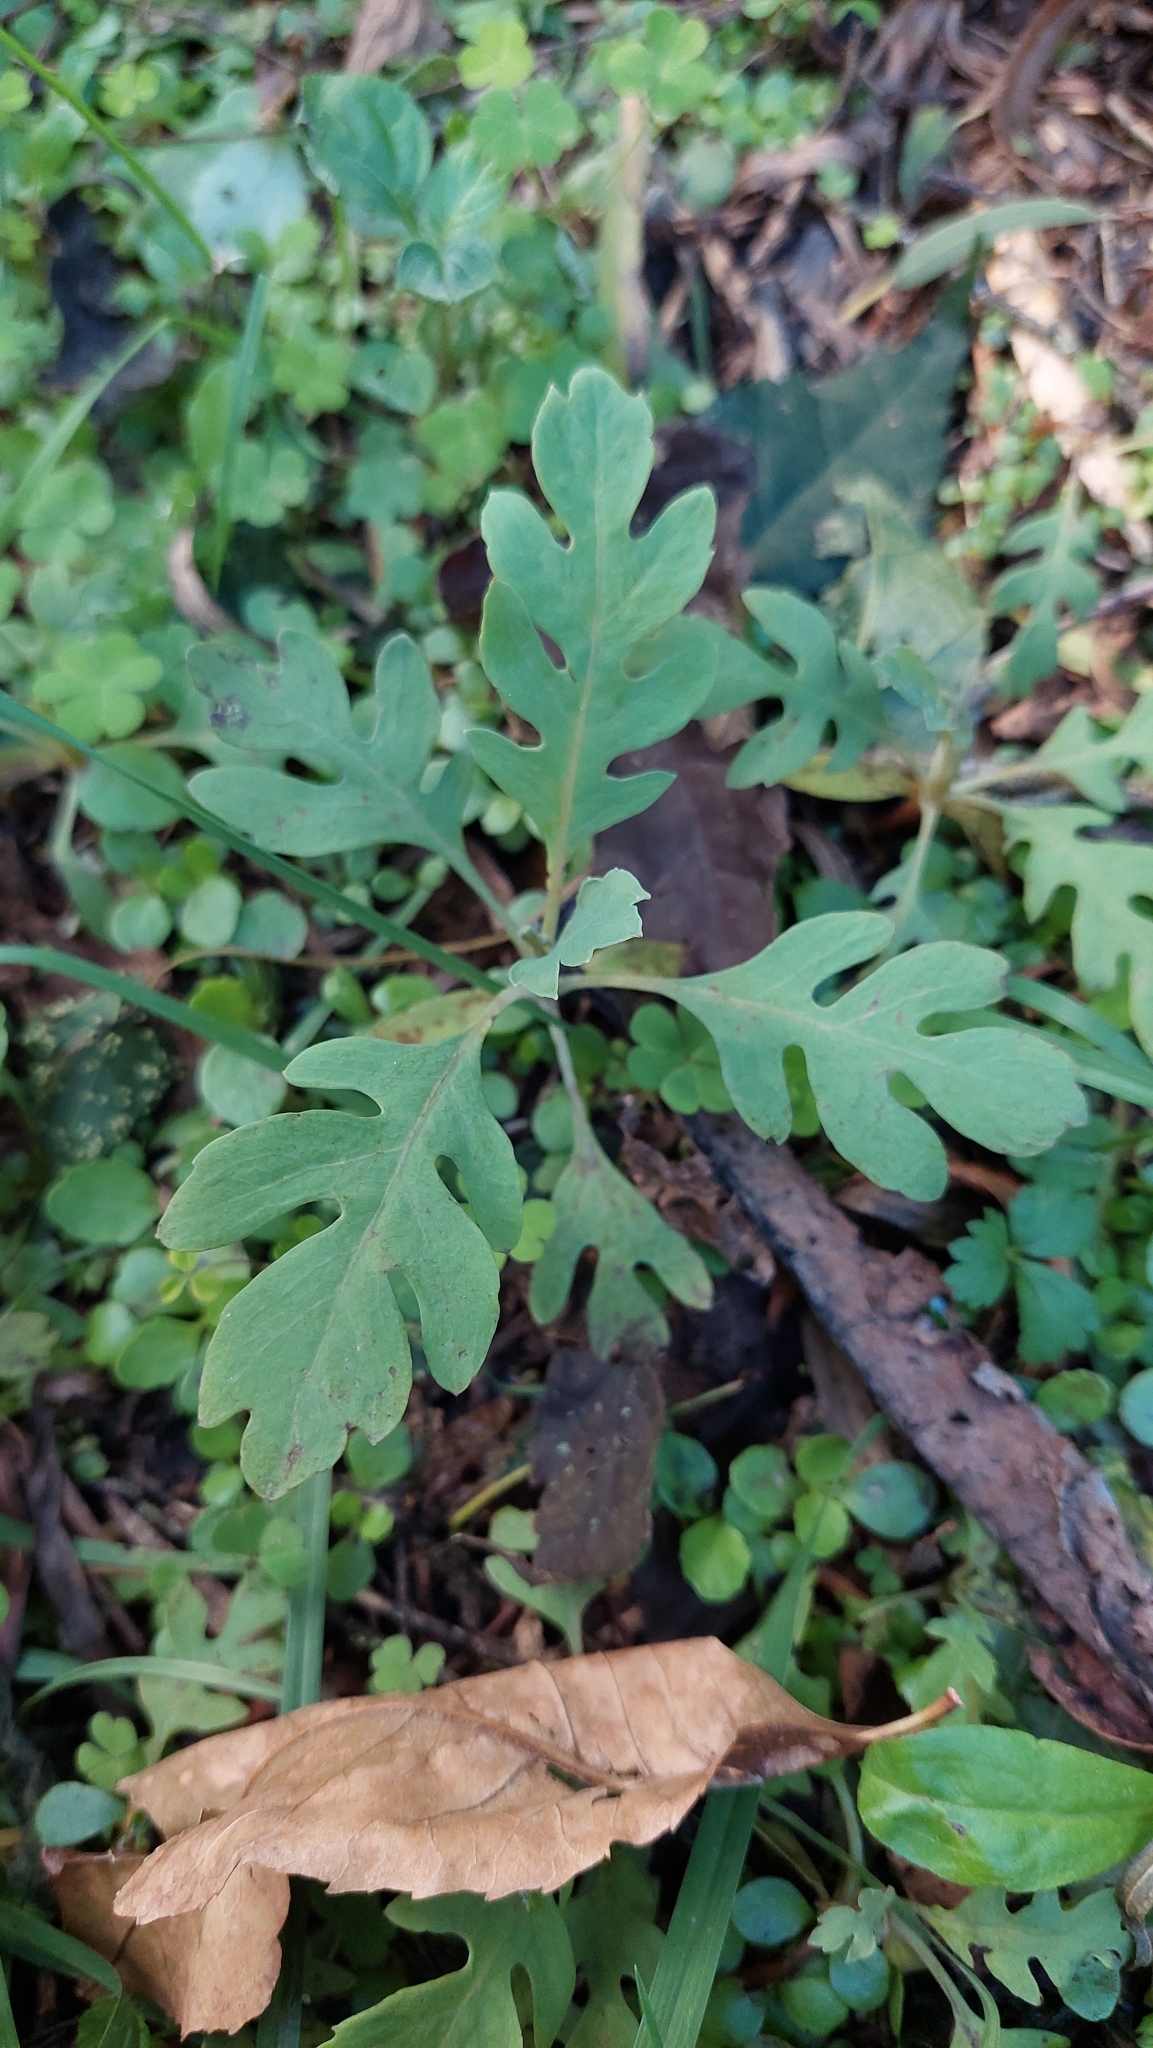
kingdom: Plantae
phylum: Tracheophyta
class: Magnoliopsida
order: Ranunculales
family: Papaveraceae
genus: Bocconia
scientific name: Bocconia frutescens
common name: Tree poppy
